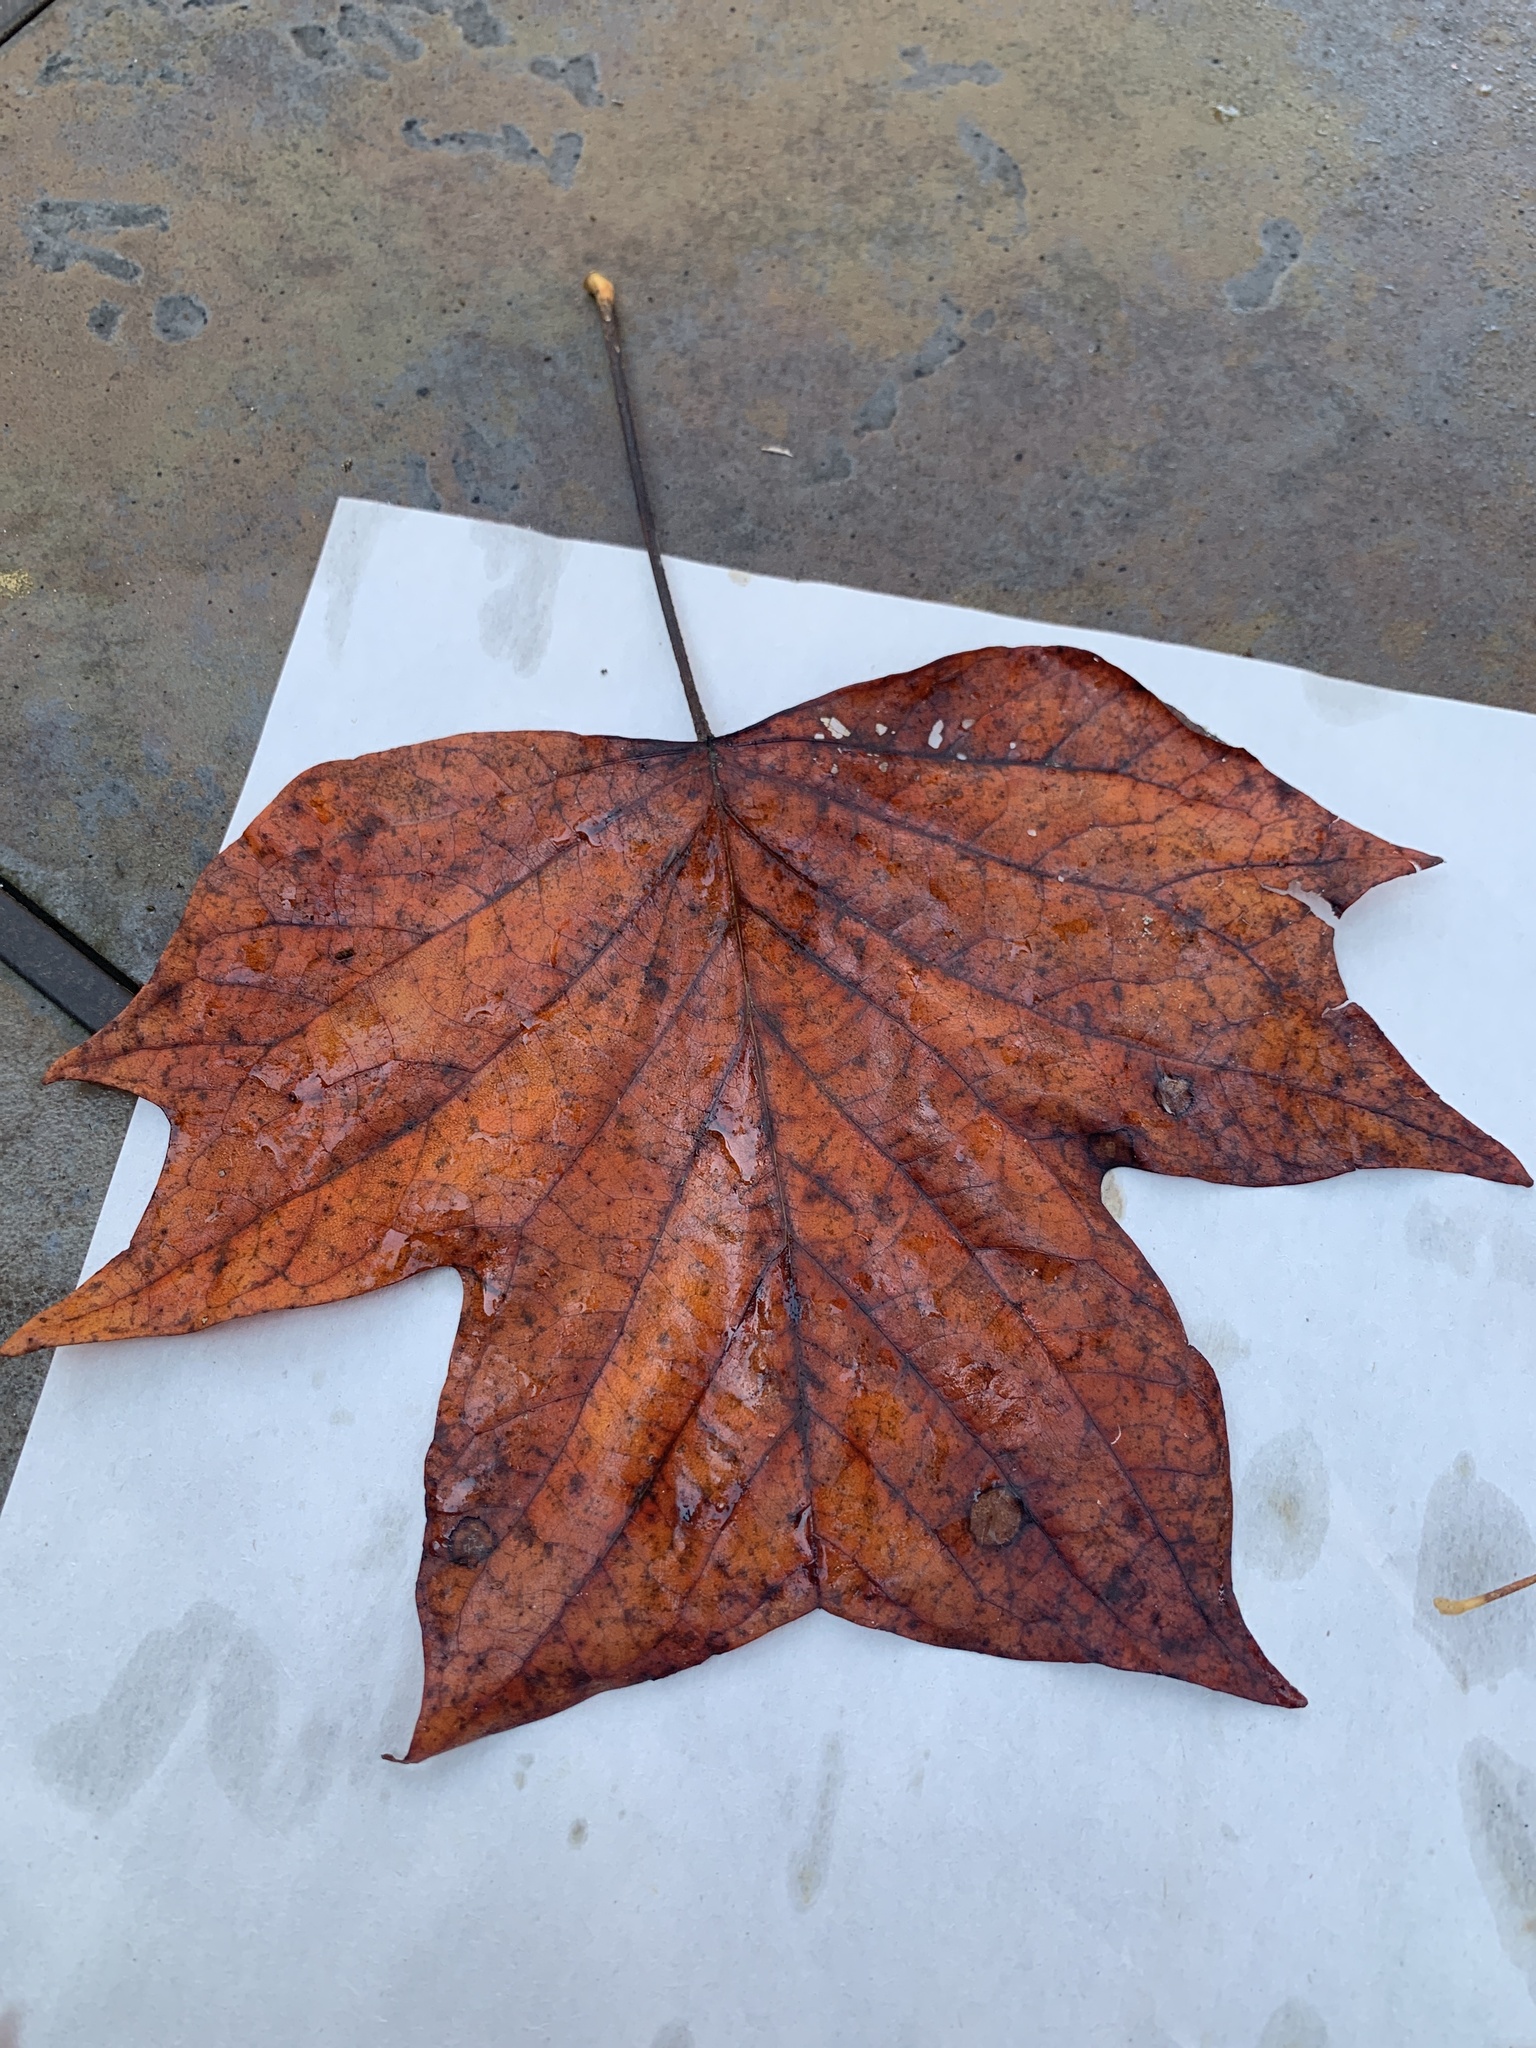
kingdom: Plantae
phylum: Tracheophyta
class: Magnoliopsida
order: Magnoliales
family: Magnoliaceae
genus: Liriodendron
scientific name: Liriodendron tulipifera
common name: Tulip tree
